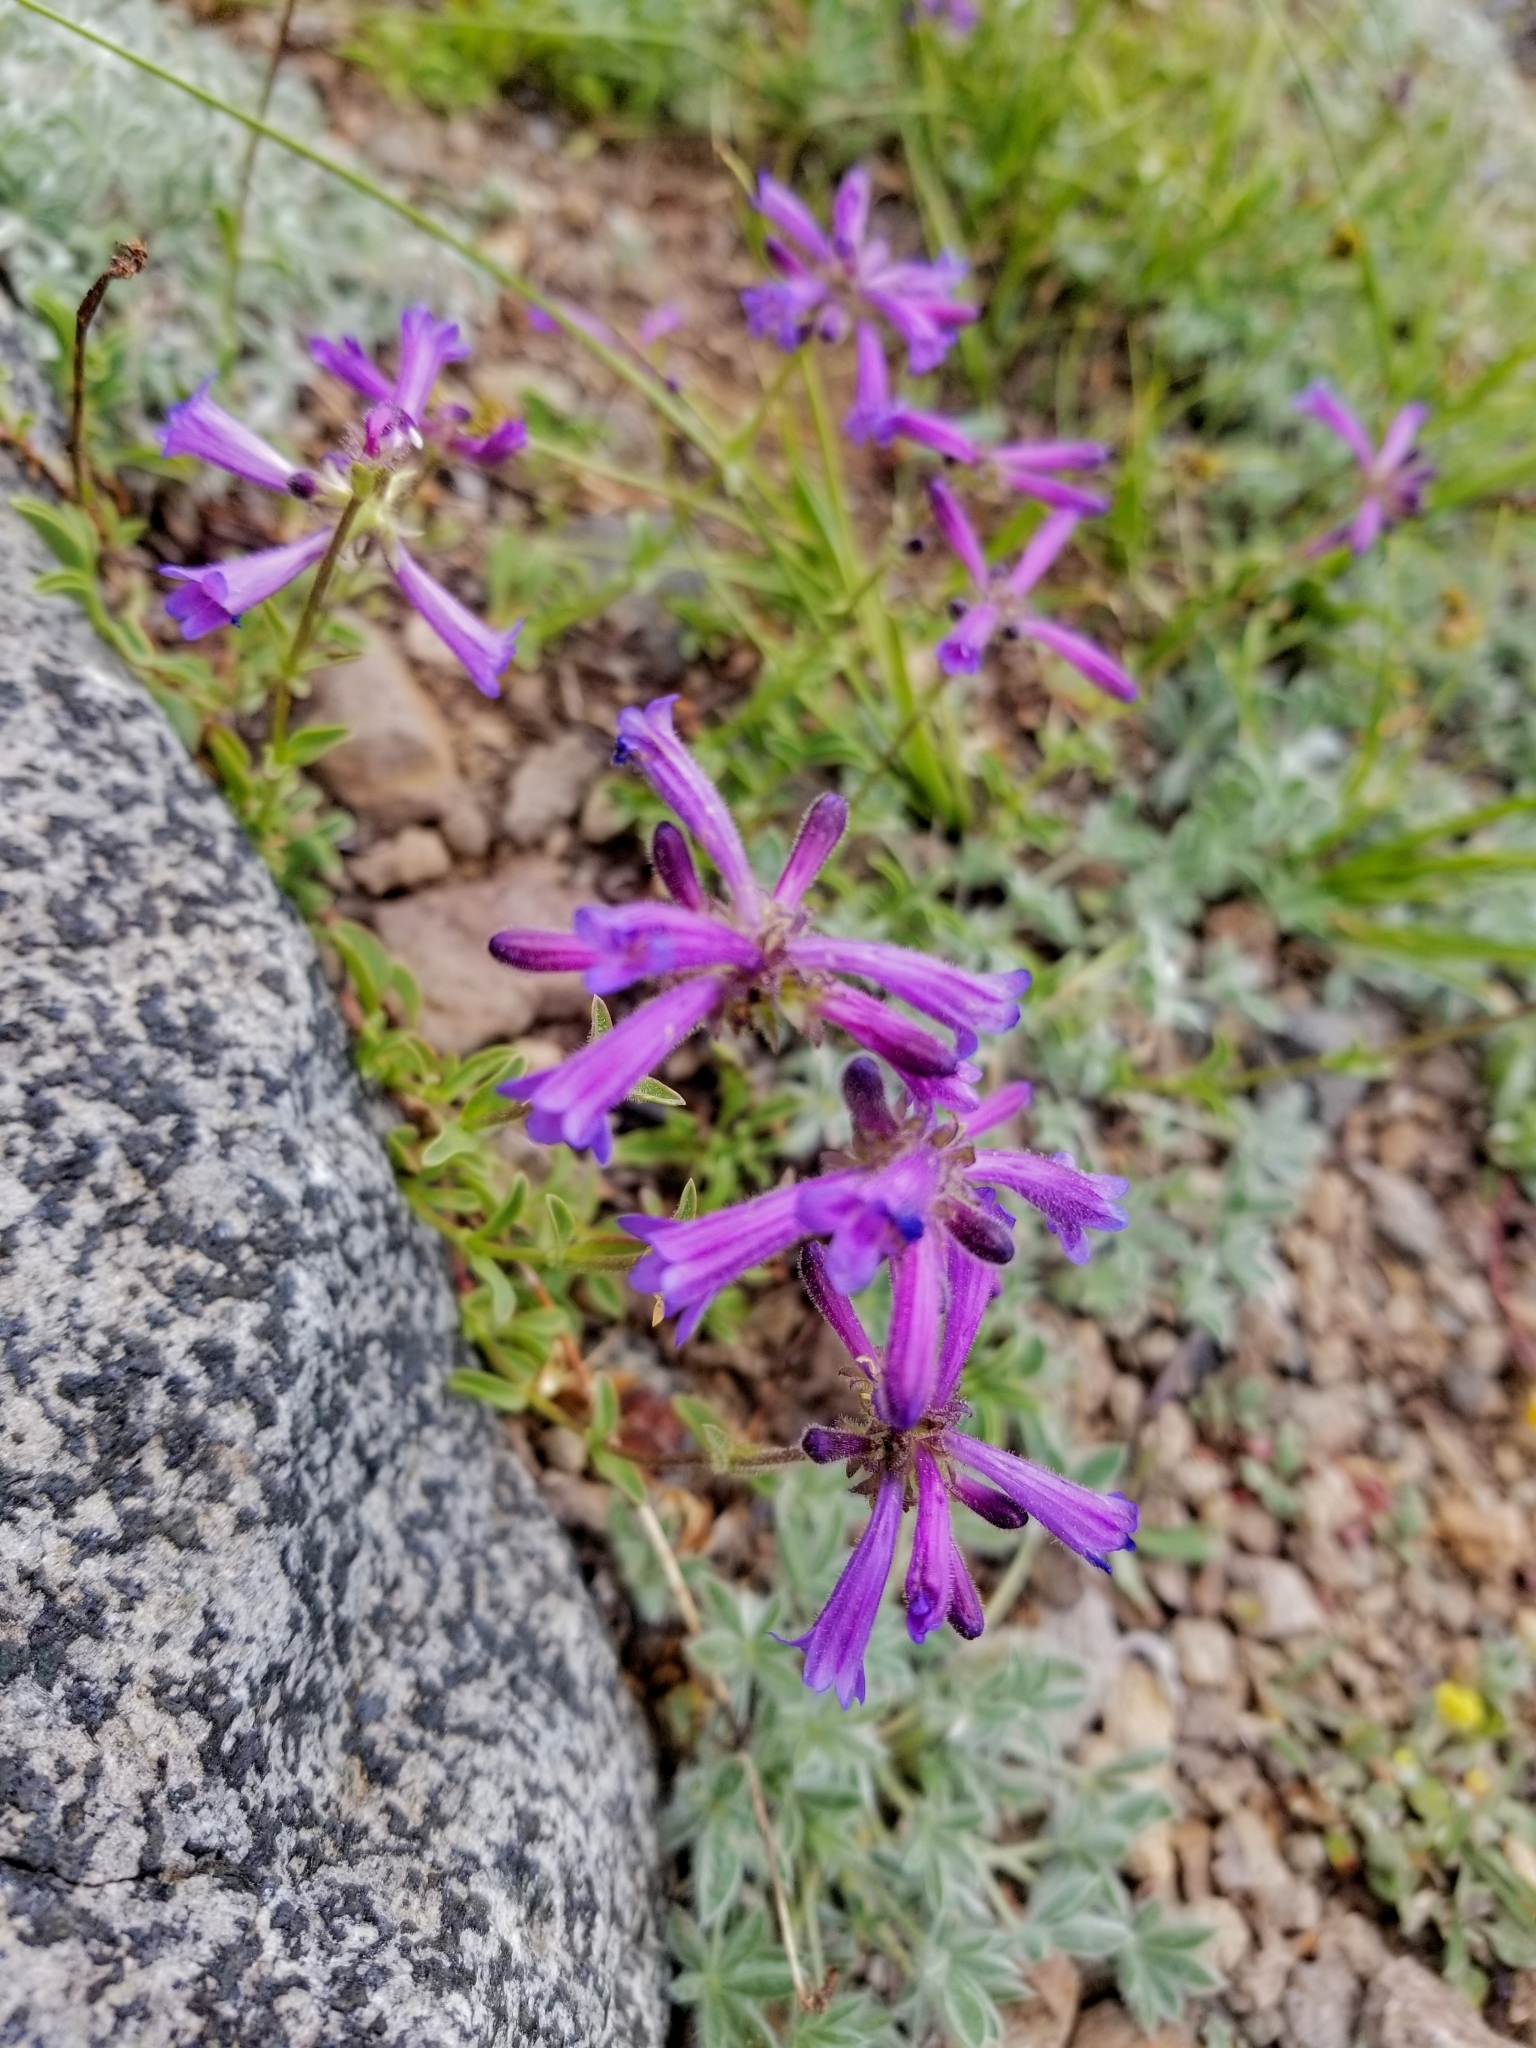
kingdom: Plantae
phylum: Tracheophyta
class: Magnoliopsida
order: Lamiales
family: Plantaginaceae
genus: Penstemon
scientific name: Penstemon heterodoxus
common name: Sierran penstemon
